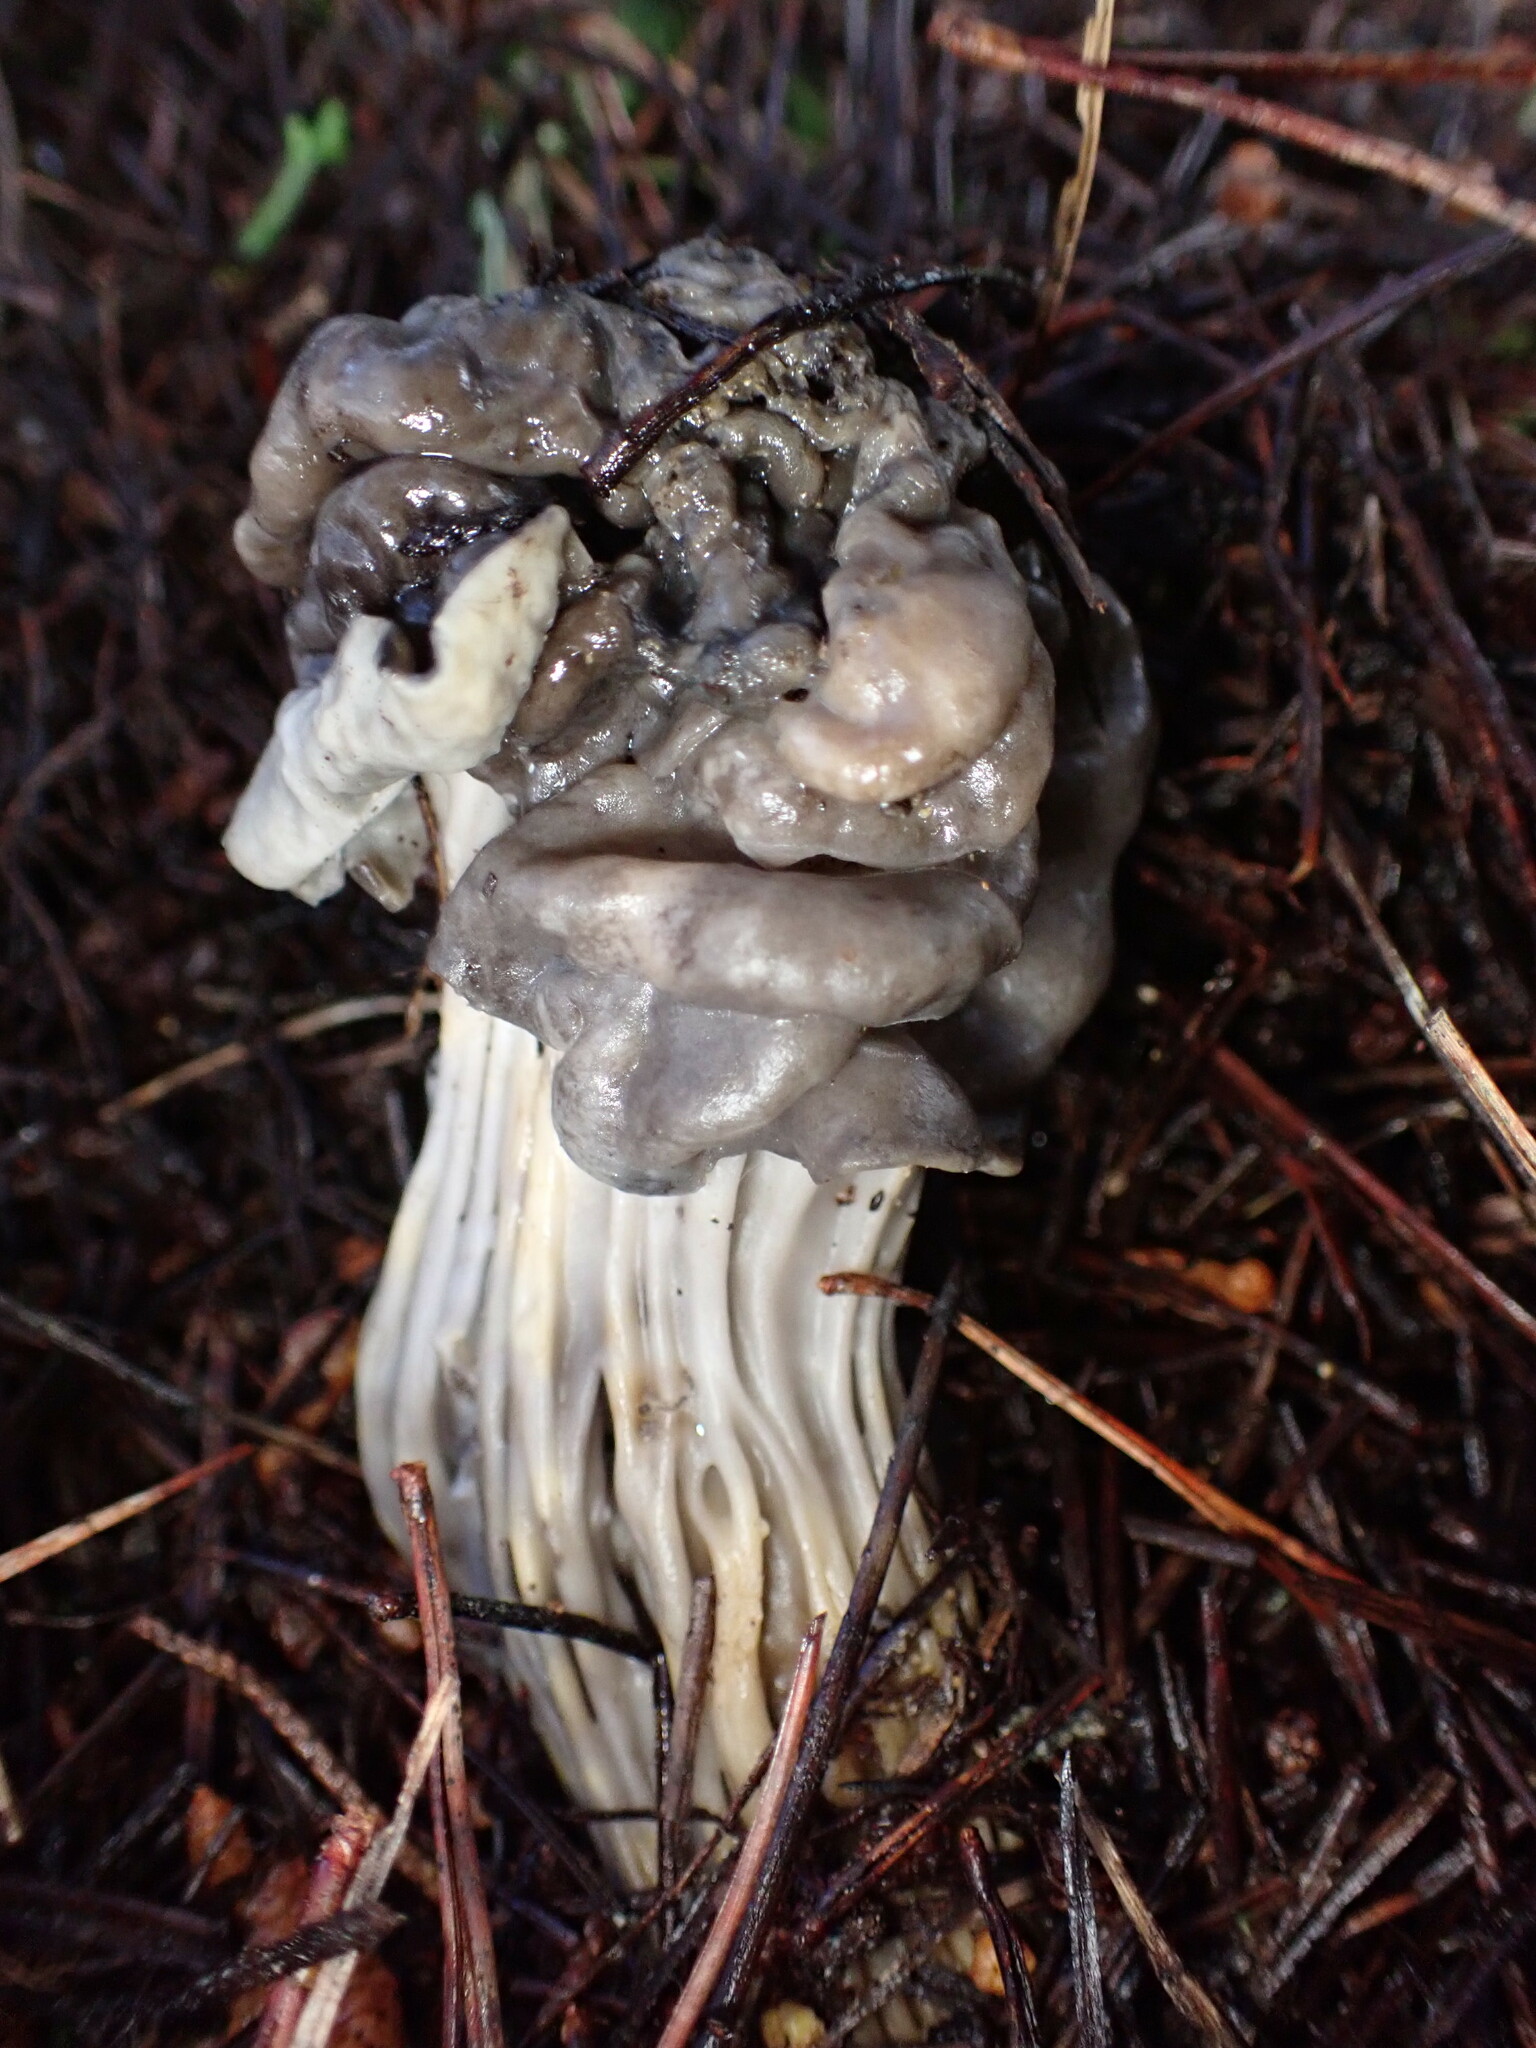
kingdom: Fungi
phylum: Ascomycota
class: Pezizomycetes
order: Pezizales
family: Helvellaceae
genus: Helvella
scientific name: Helvella vespertina
